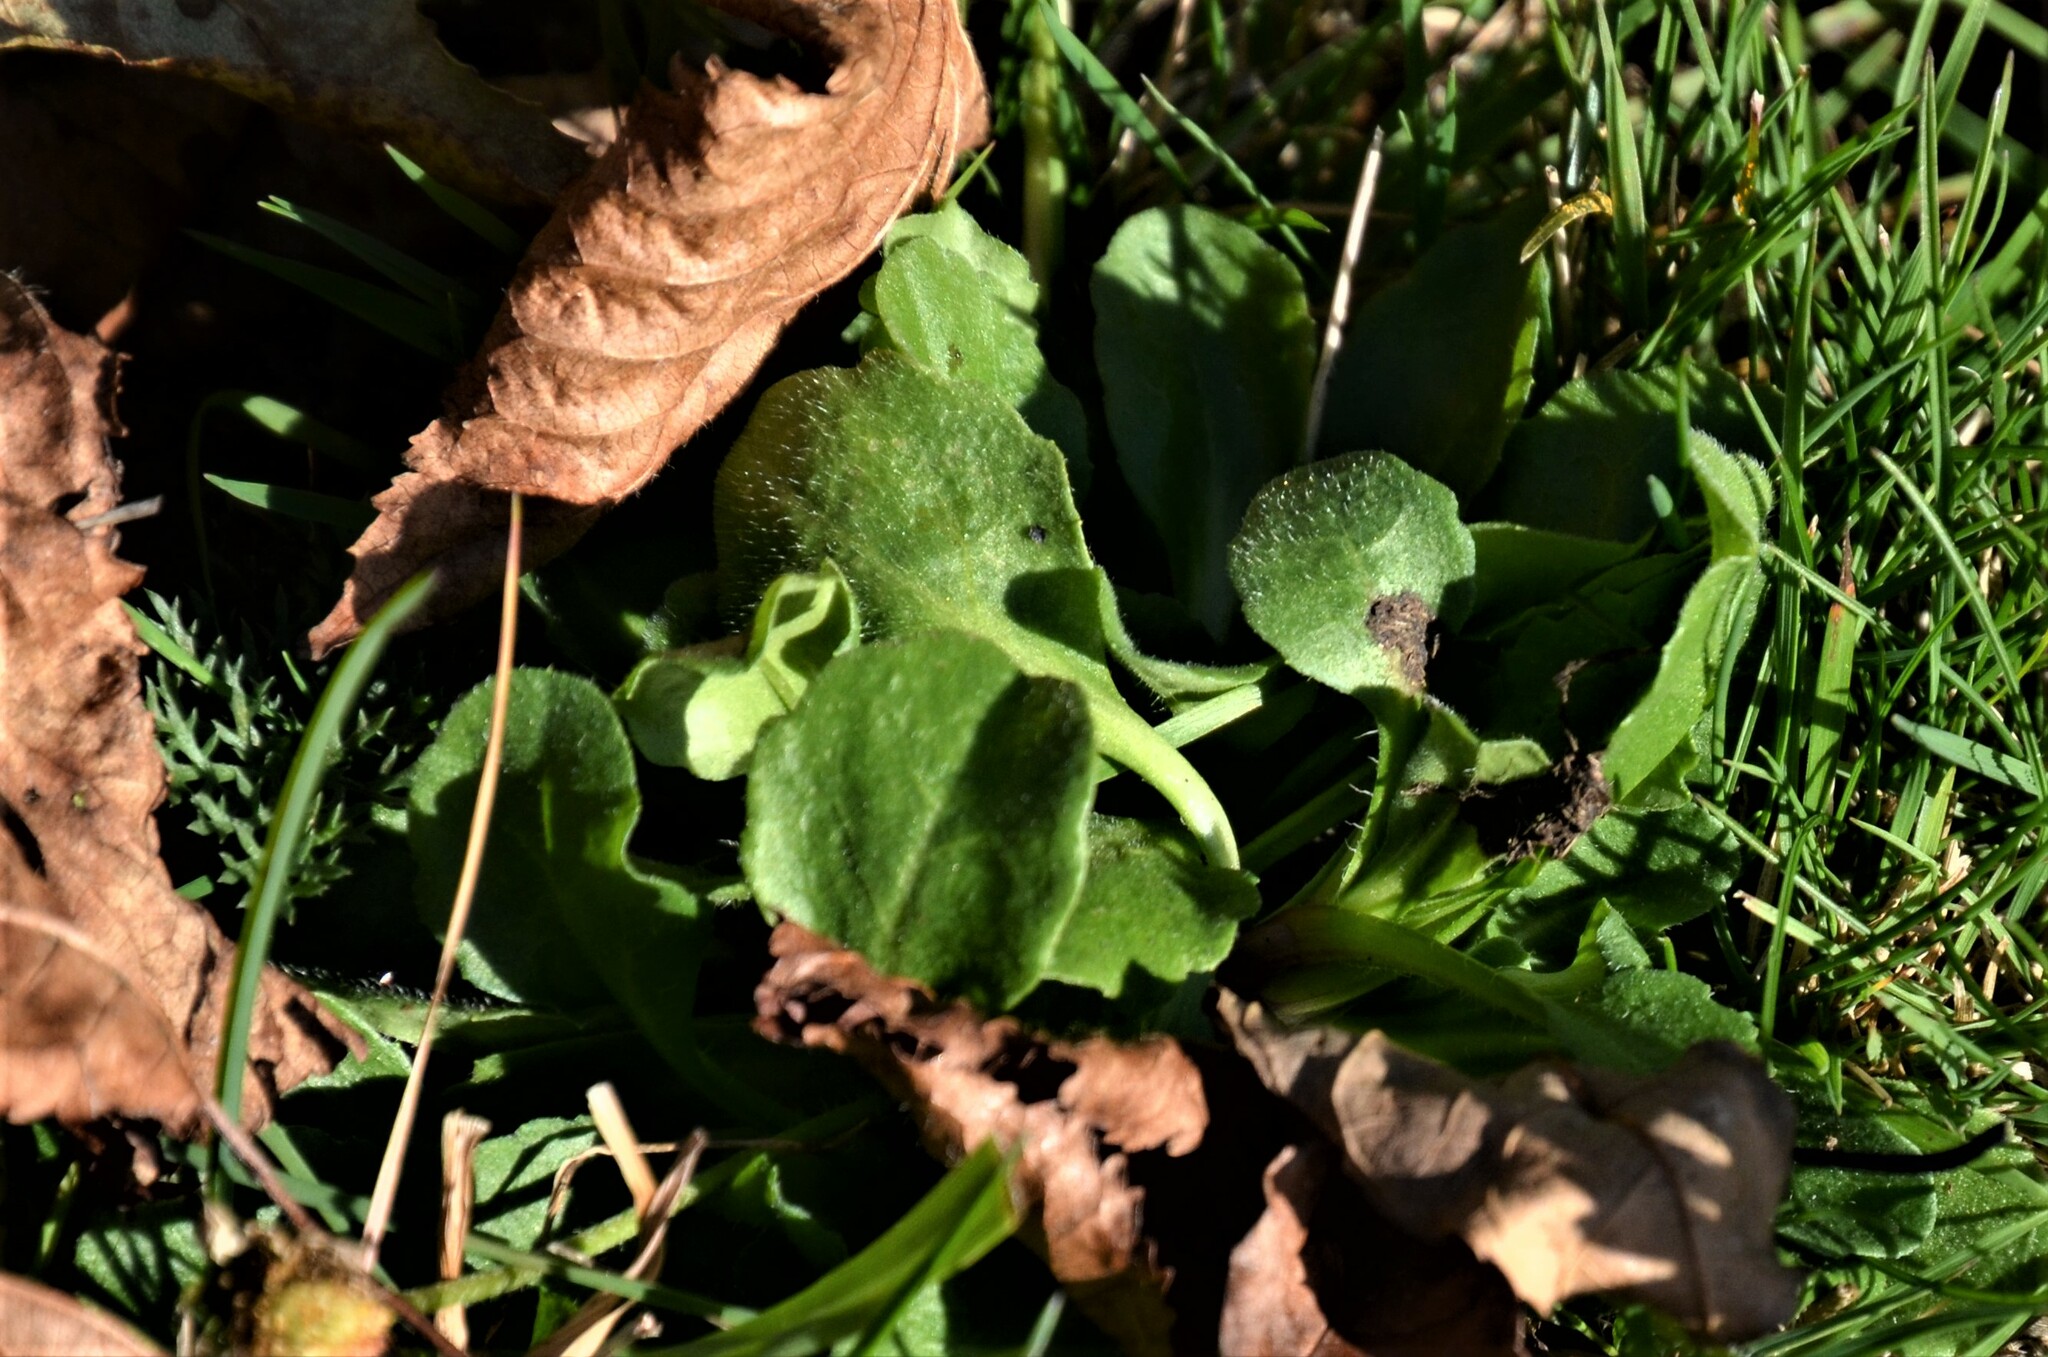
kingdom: Plantae
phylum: Tracheophyta
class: Magnoliopsida
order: Asterales
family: Asteraceae
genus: Bellis
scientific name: Bellis perennis
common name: Lawndaisy
